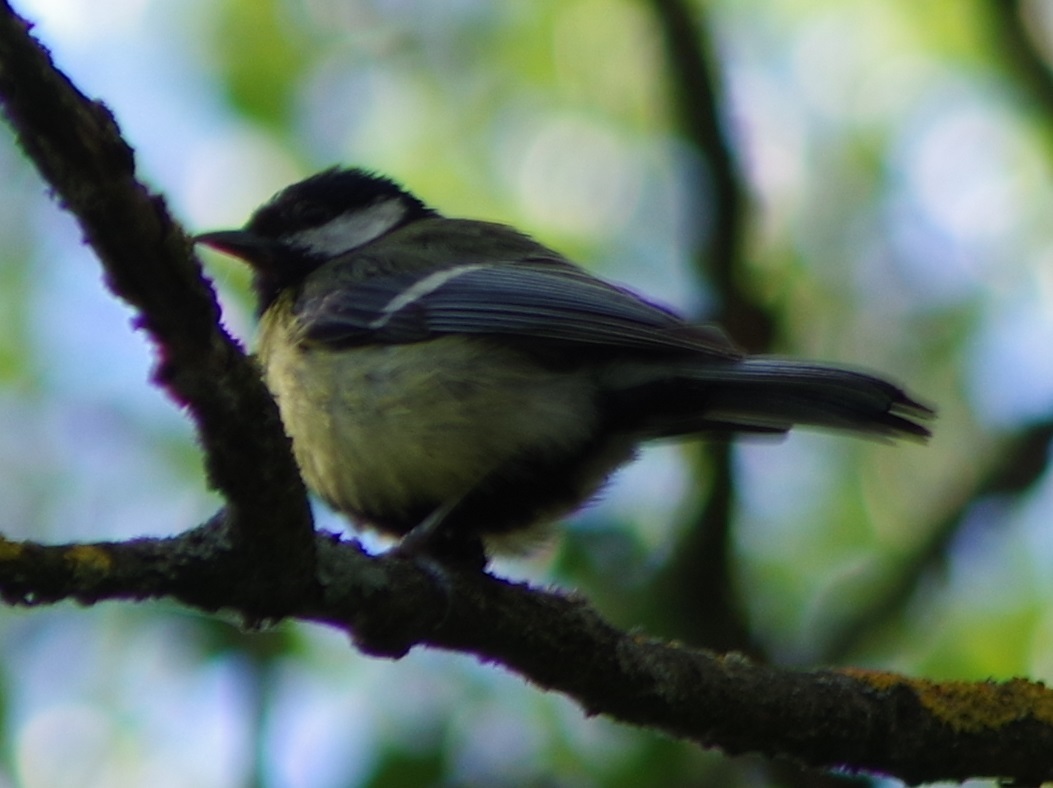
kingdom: Animalia
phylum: Chordata
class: Aves
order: Passeriformes
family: Paridae
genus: Parus
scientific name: Parus major
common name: Great tit
